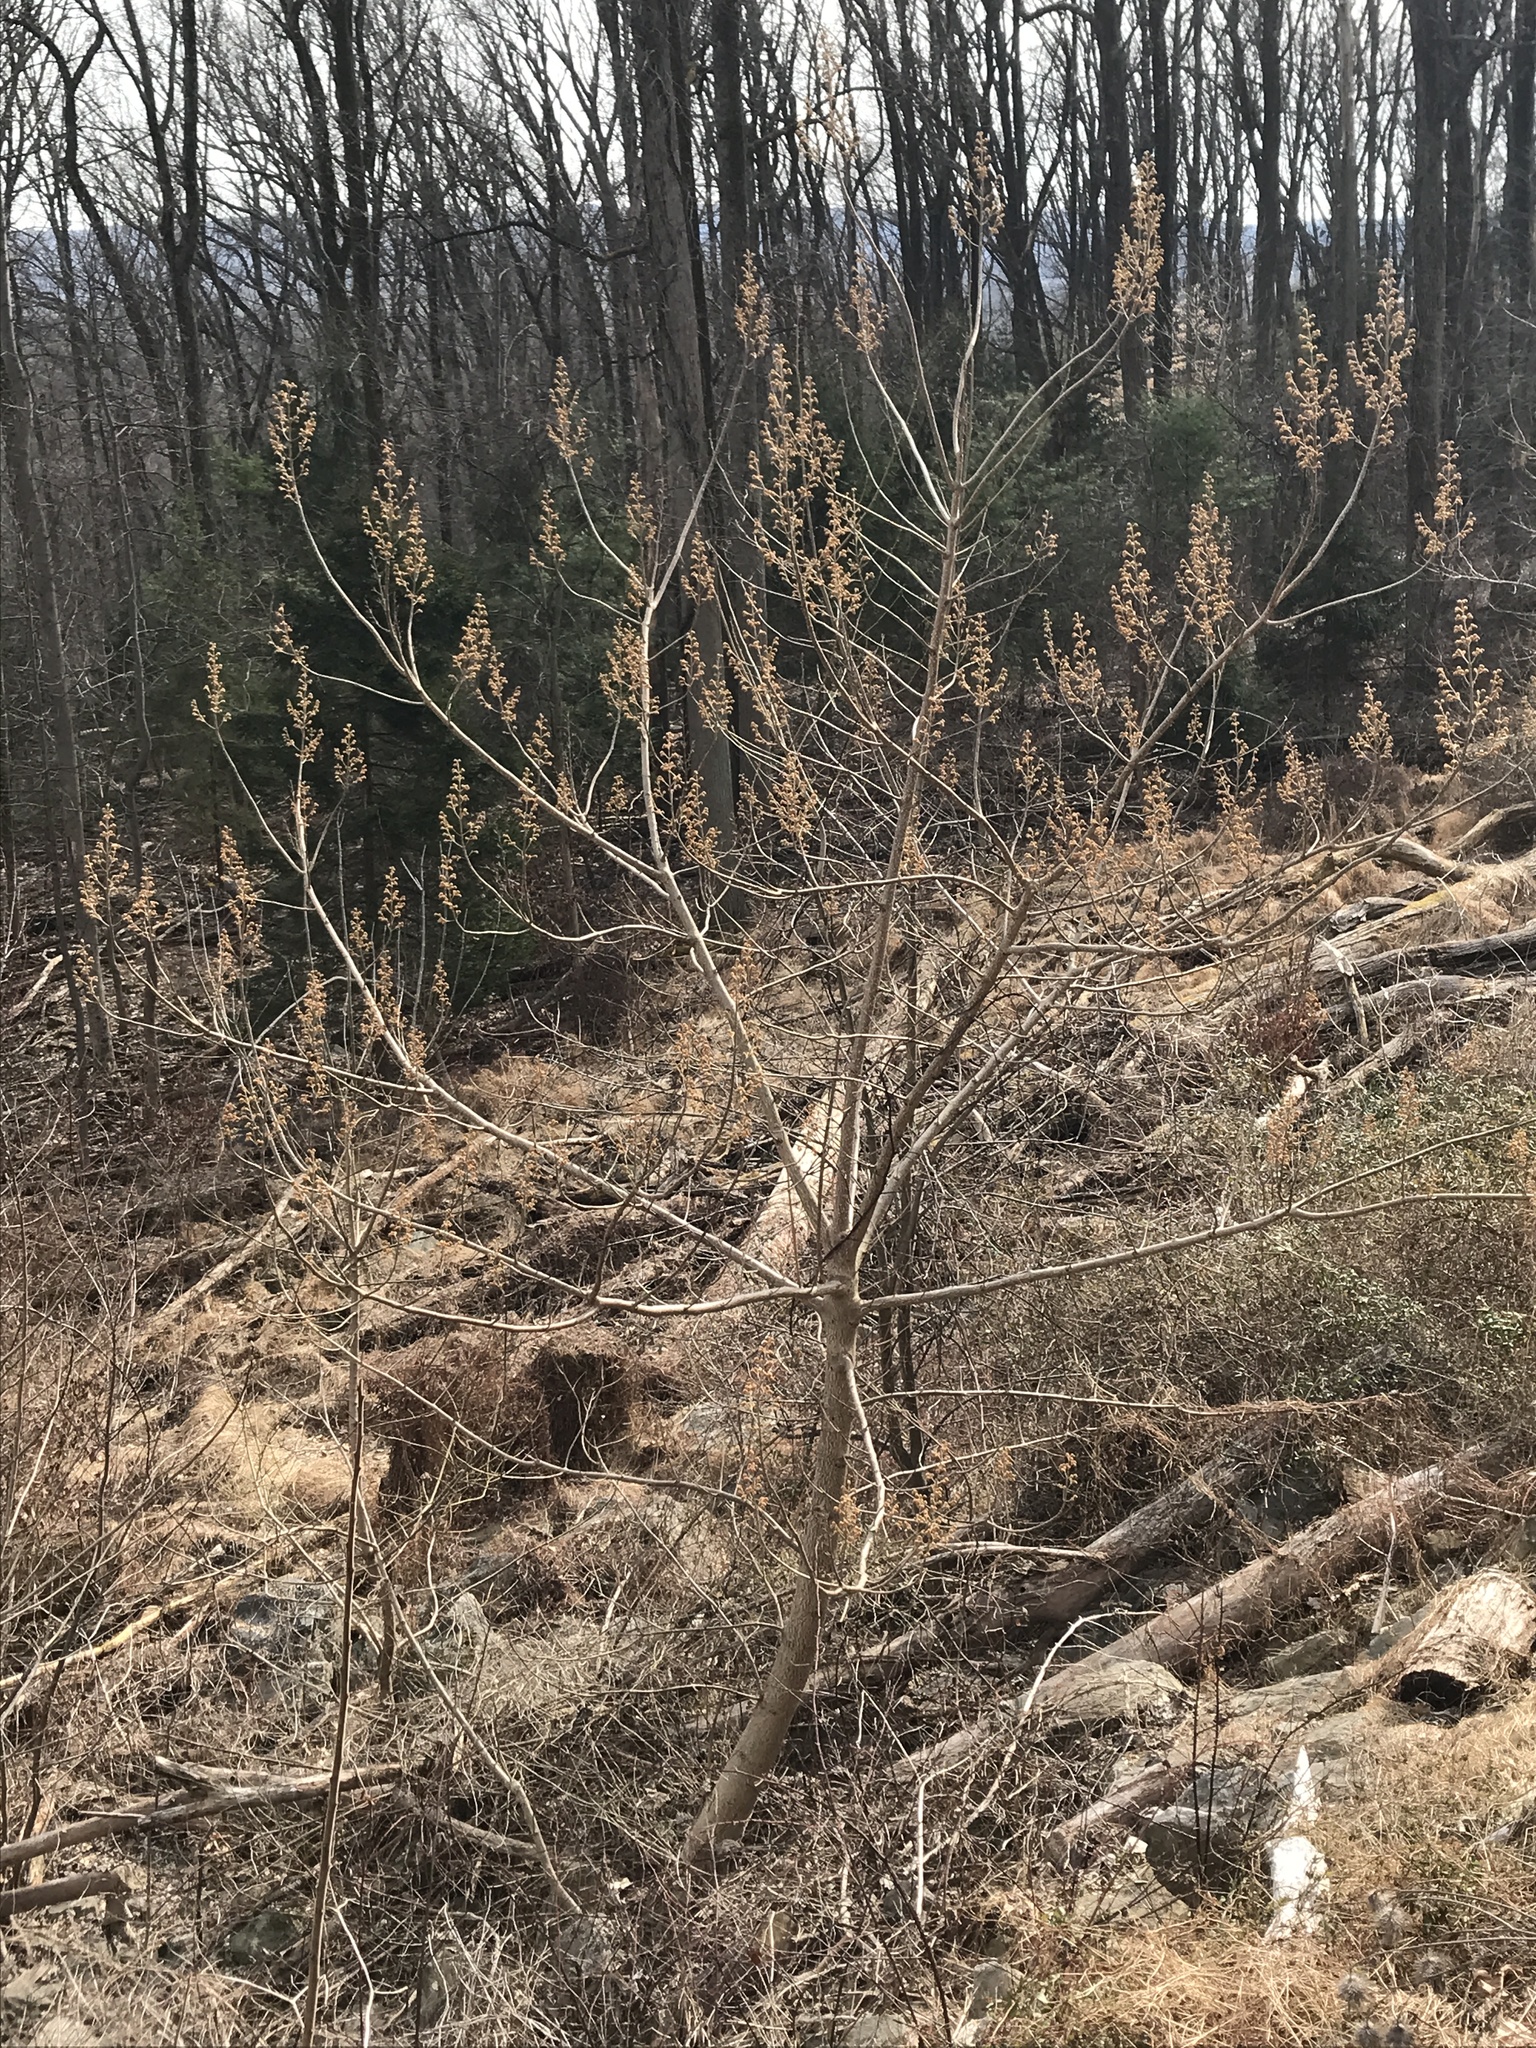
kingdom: Plantae
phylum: Tracheophyta
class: Magnoliopsida
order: Lamiales
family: Paulowniaceae
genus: Paulownia
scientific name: Paulownia tomentosa
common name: Foxglove-tree
